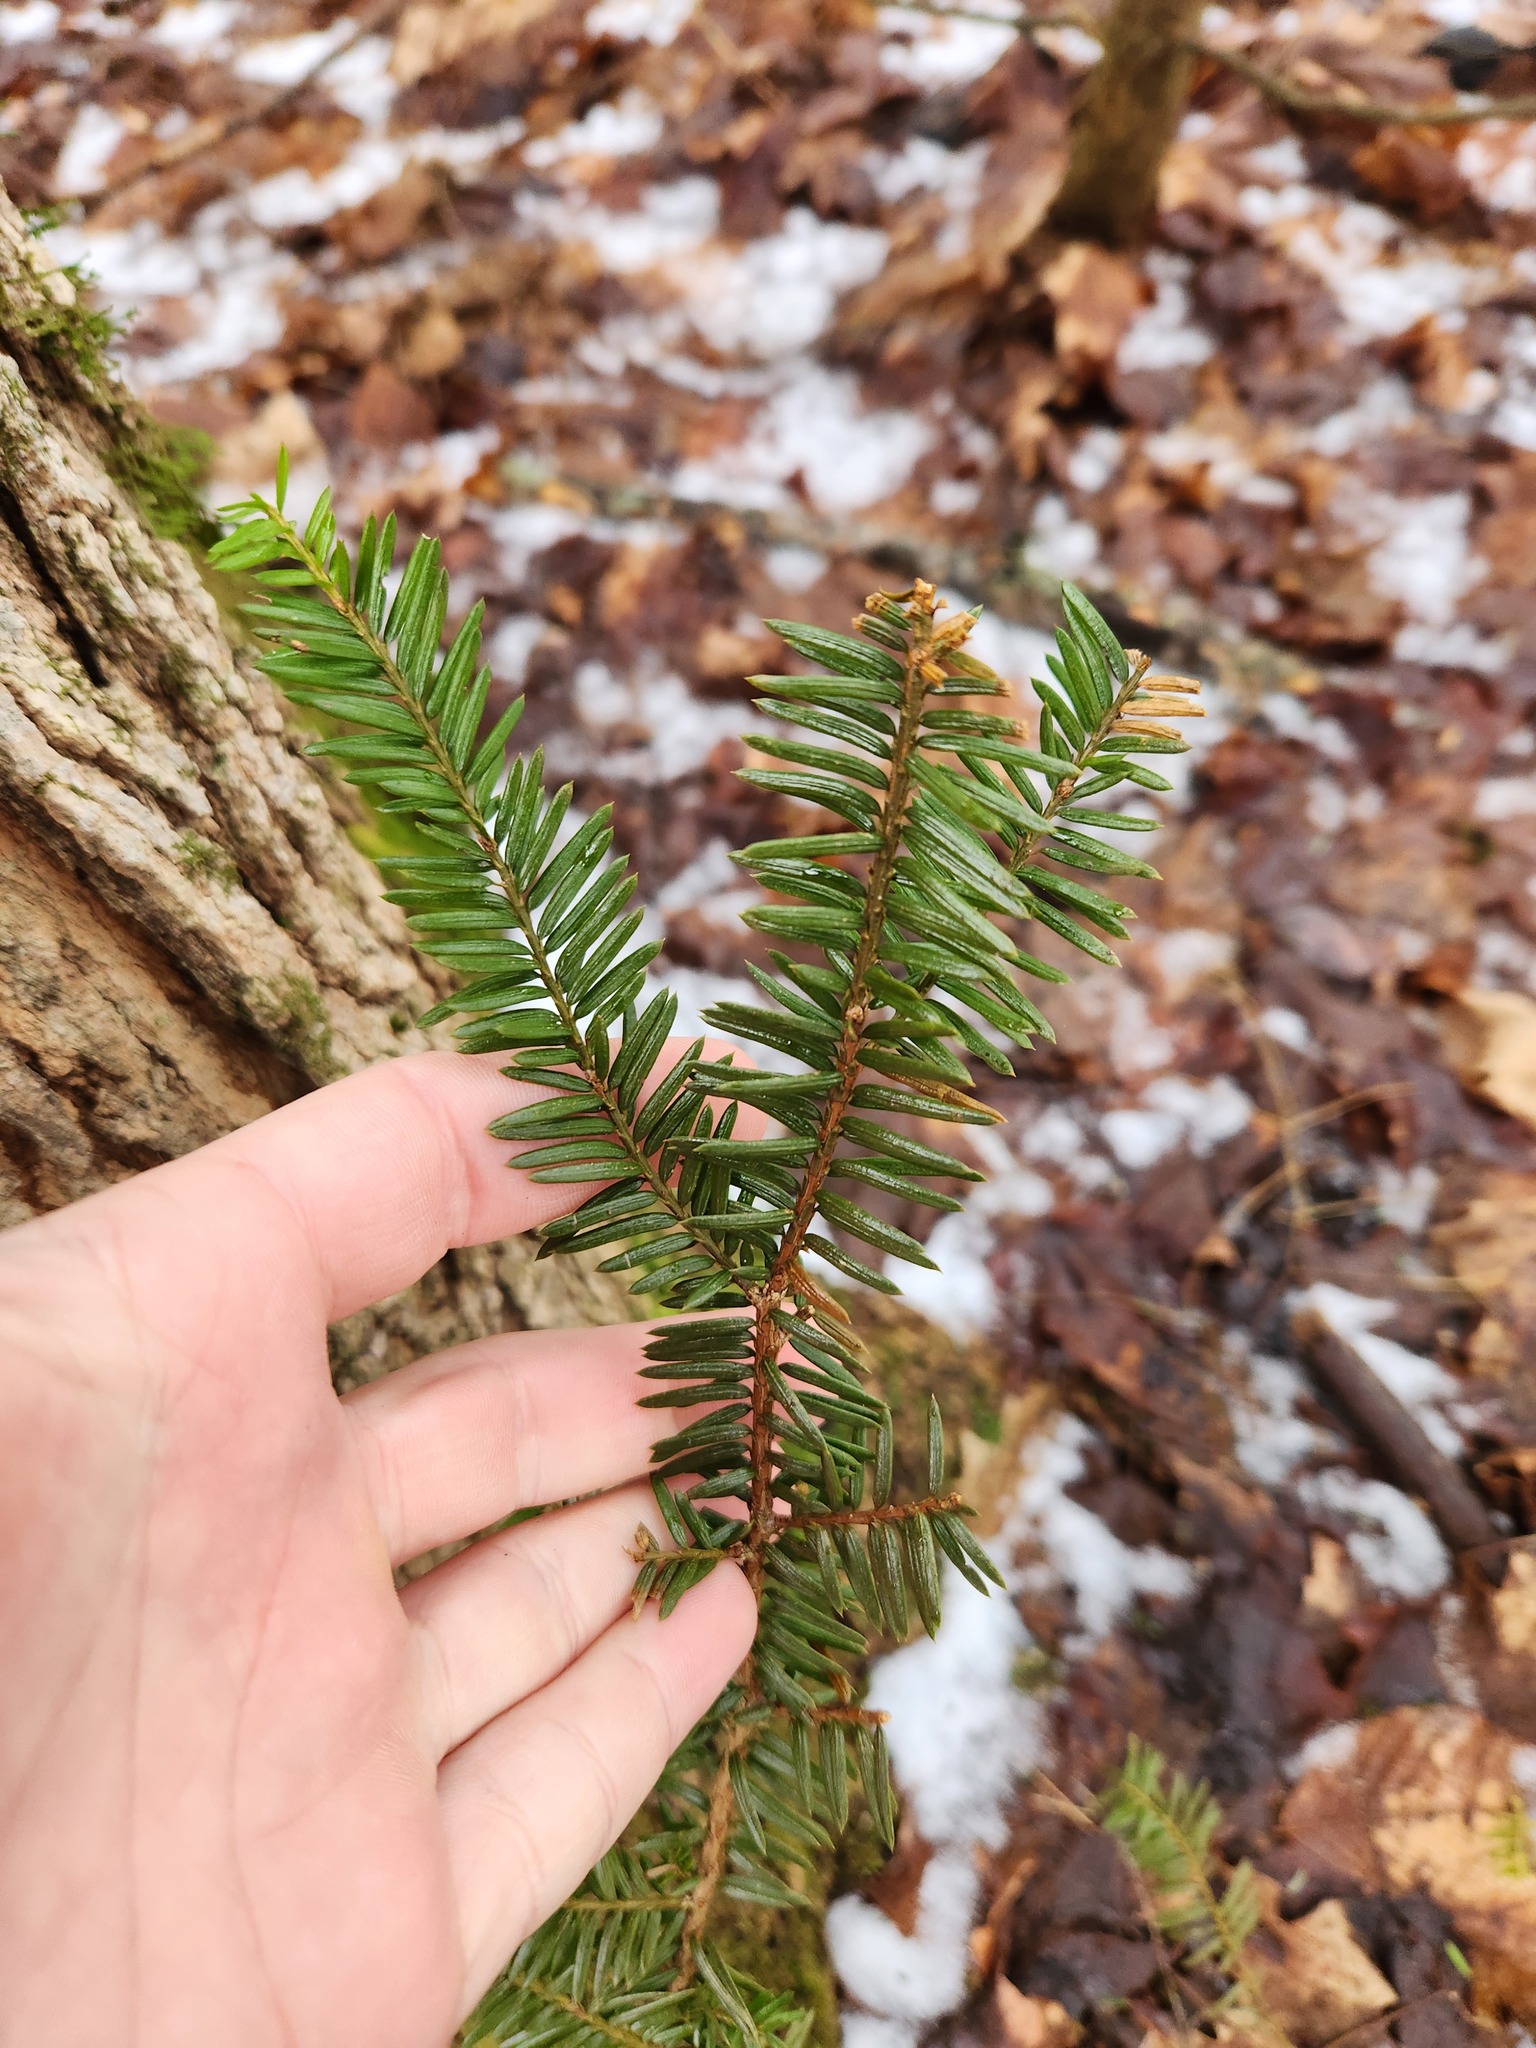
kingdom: Plantae
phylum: Tracheophyta
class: Pinopsida
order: Pinales
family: Taxaceae
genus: Taxus
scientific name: Taxus canadensis
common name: American yew
